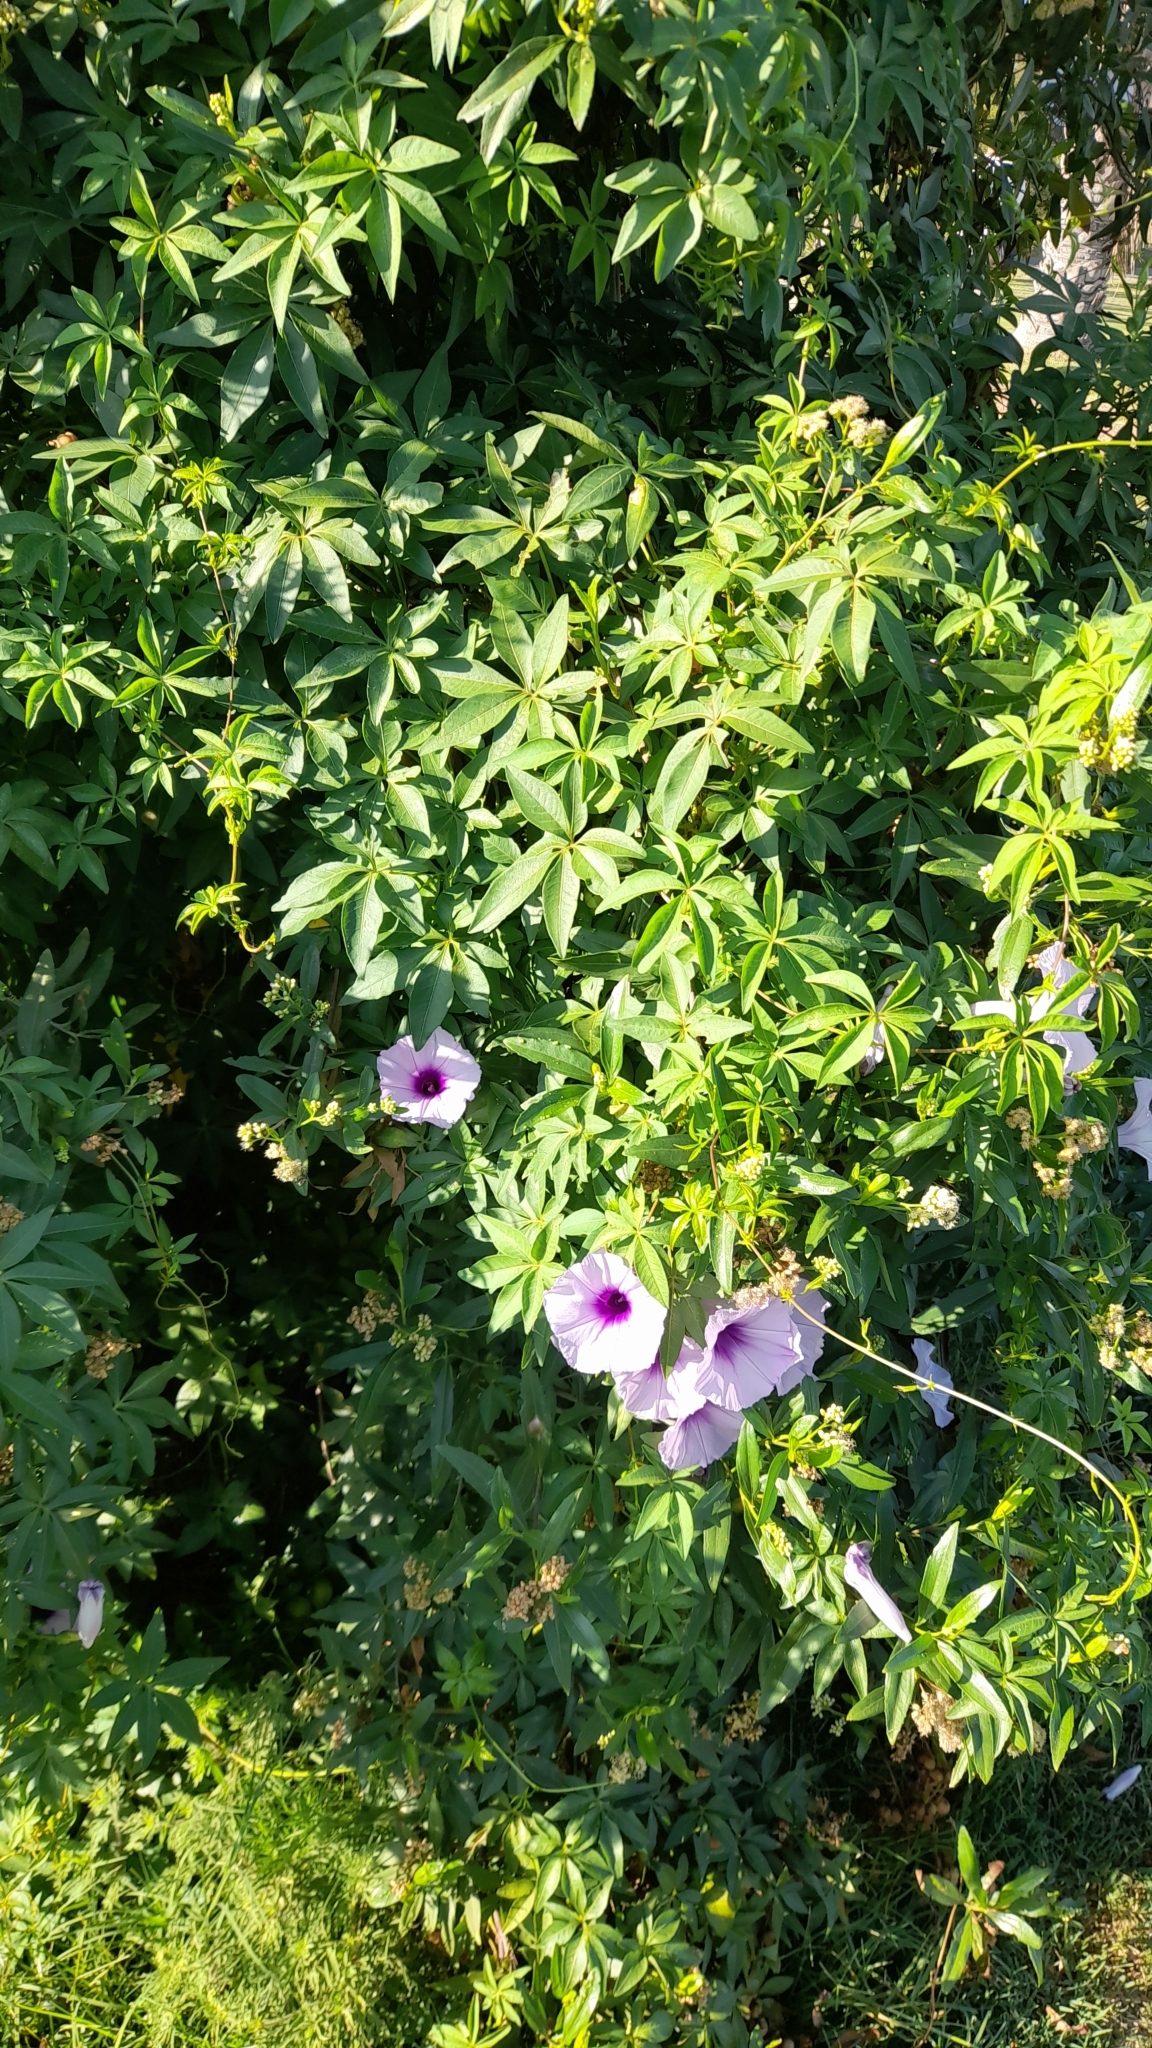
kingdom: Plantae
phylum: Tracheophyta
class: Magnoliopsida
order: Solanales
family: Convolvulaceae
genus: Ipomoea
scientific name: Ipomoea cairica
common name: Mile a minute vine
